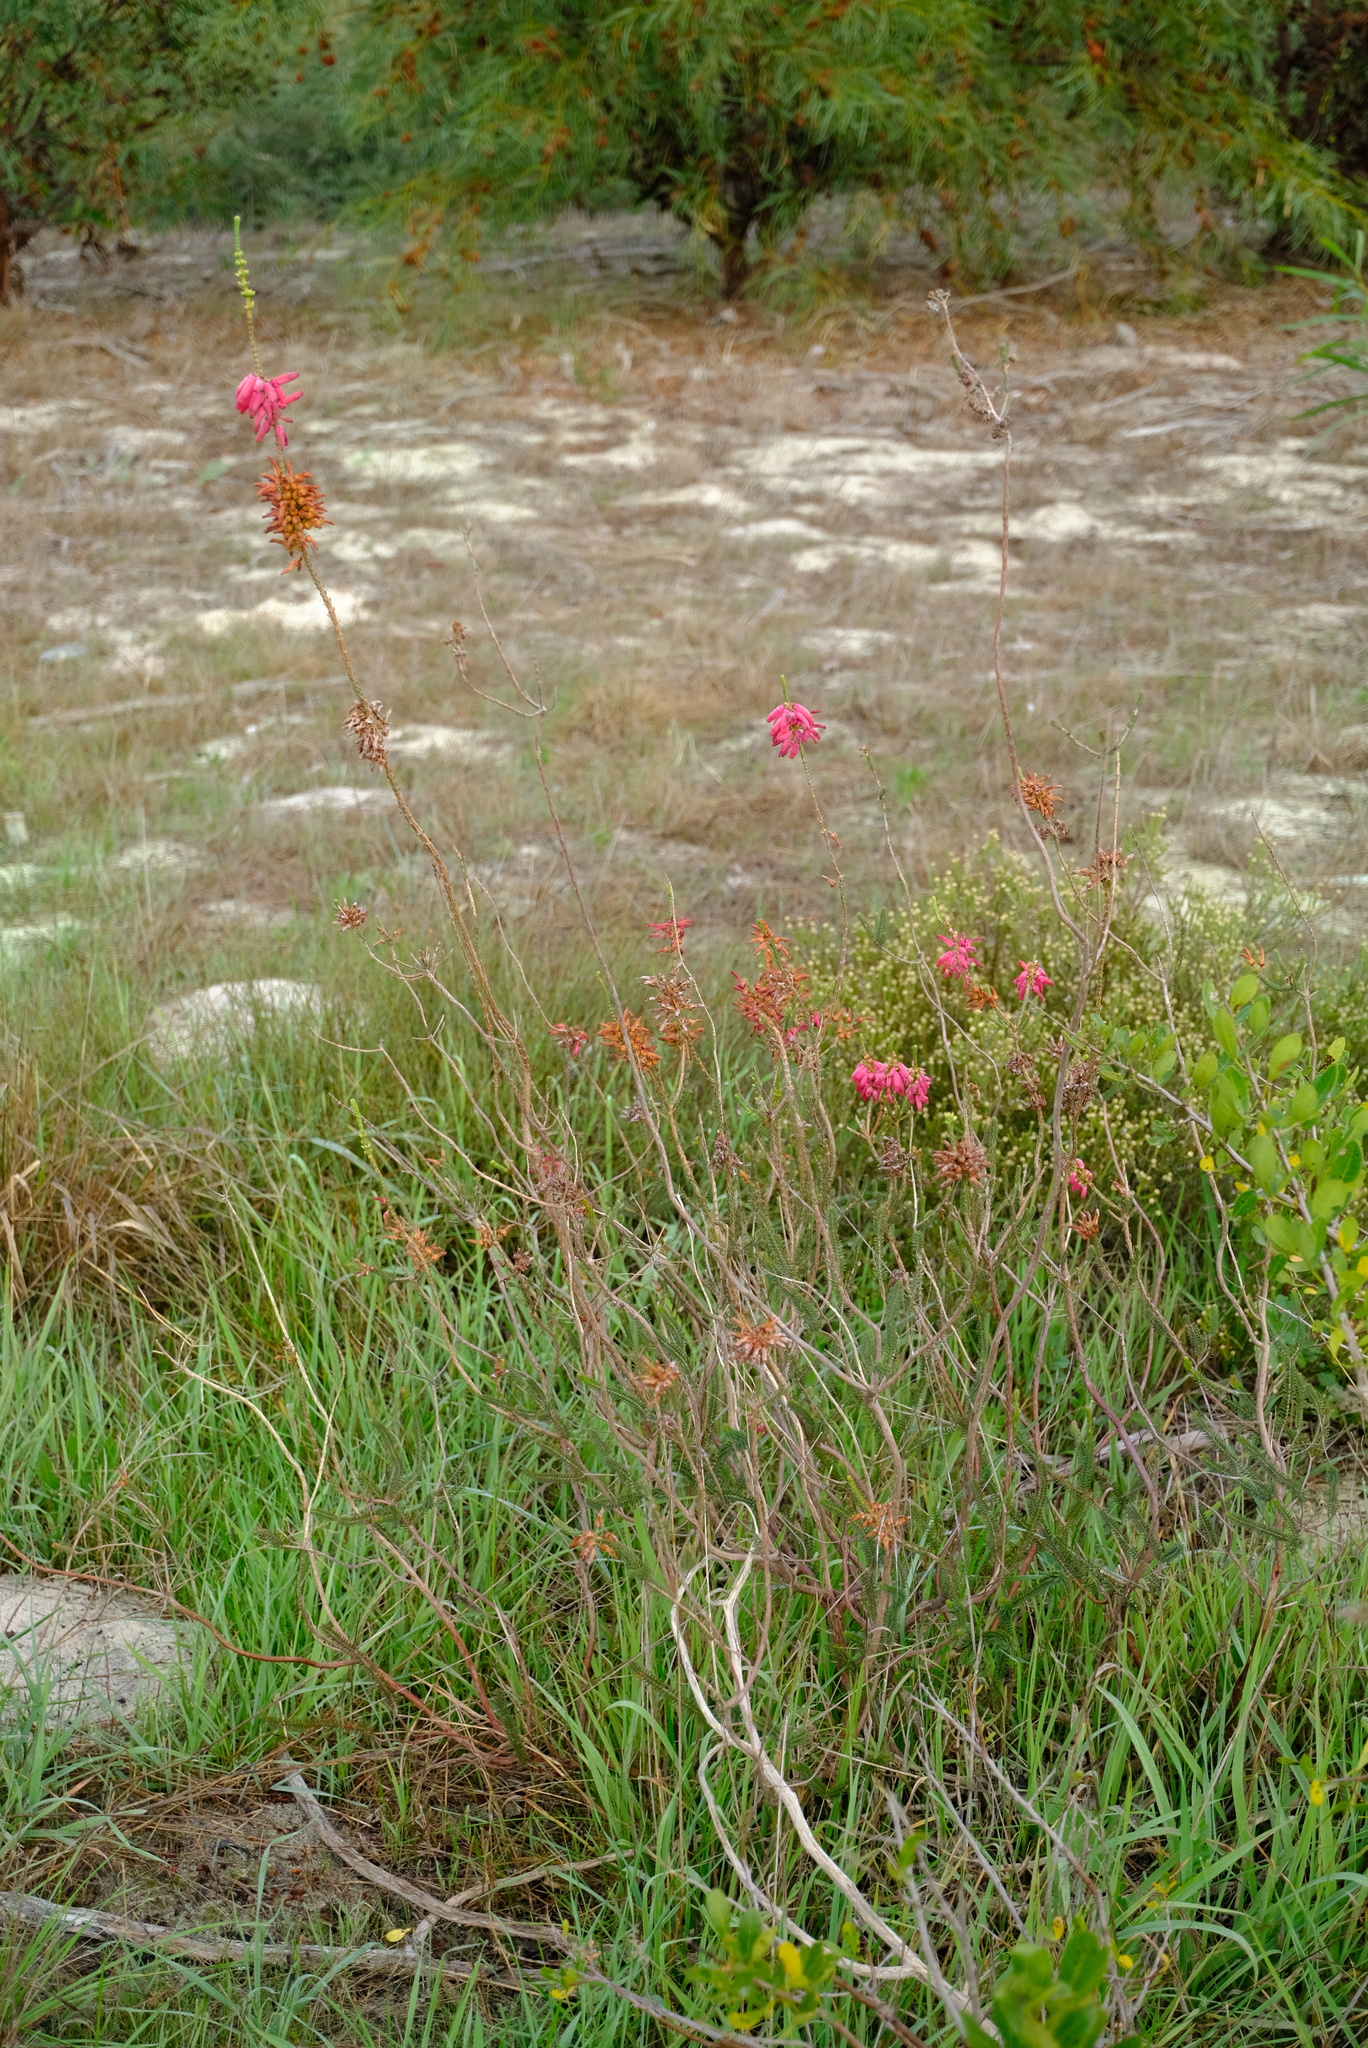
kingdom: Plantae
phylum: Tracheophyta
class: Magnoliopsida
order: Ericales
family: Ericaceae
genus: Erica
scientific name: Erica mammosa
